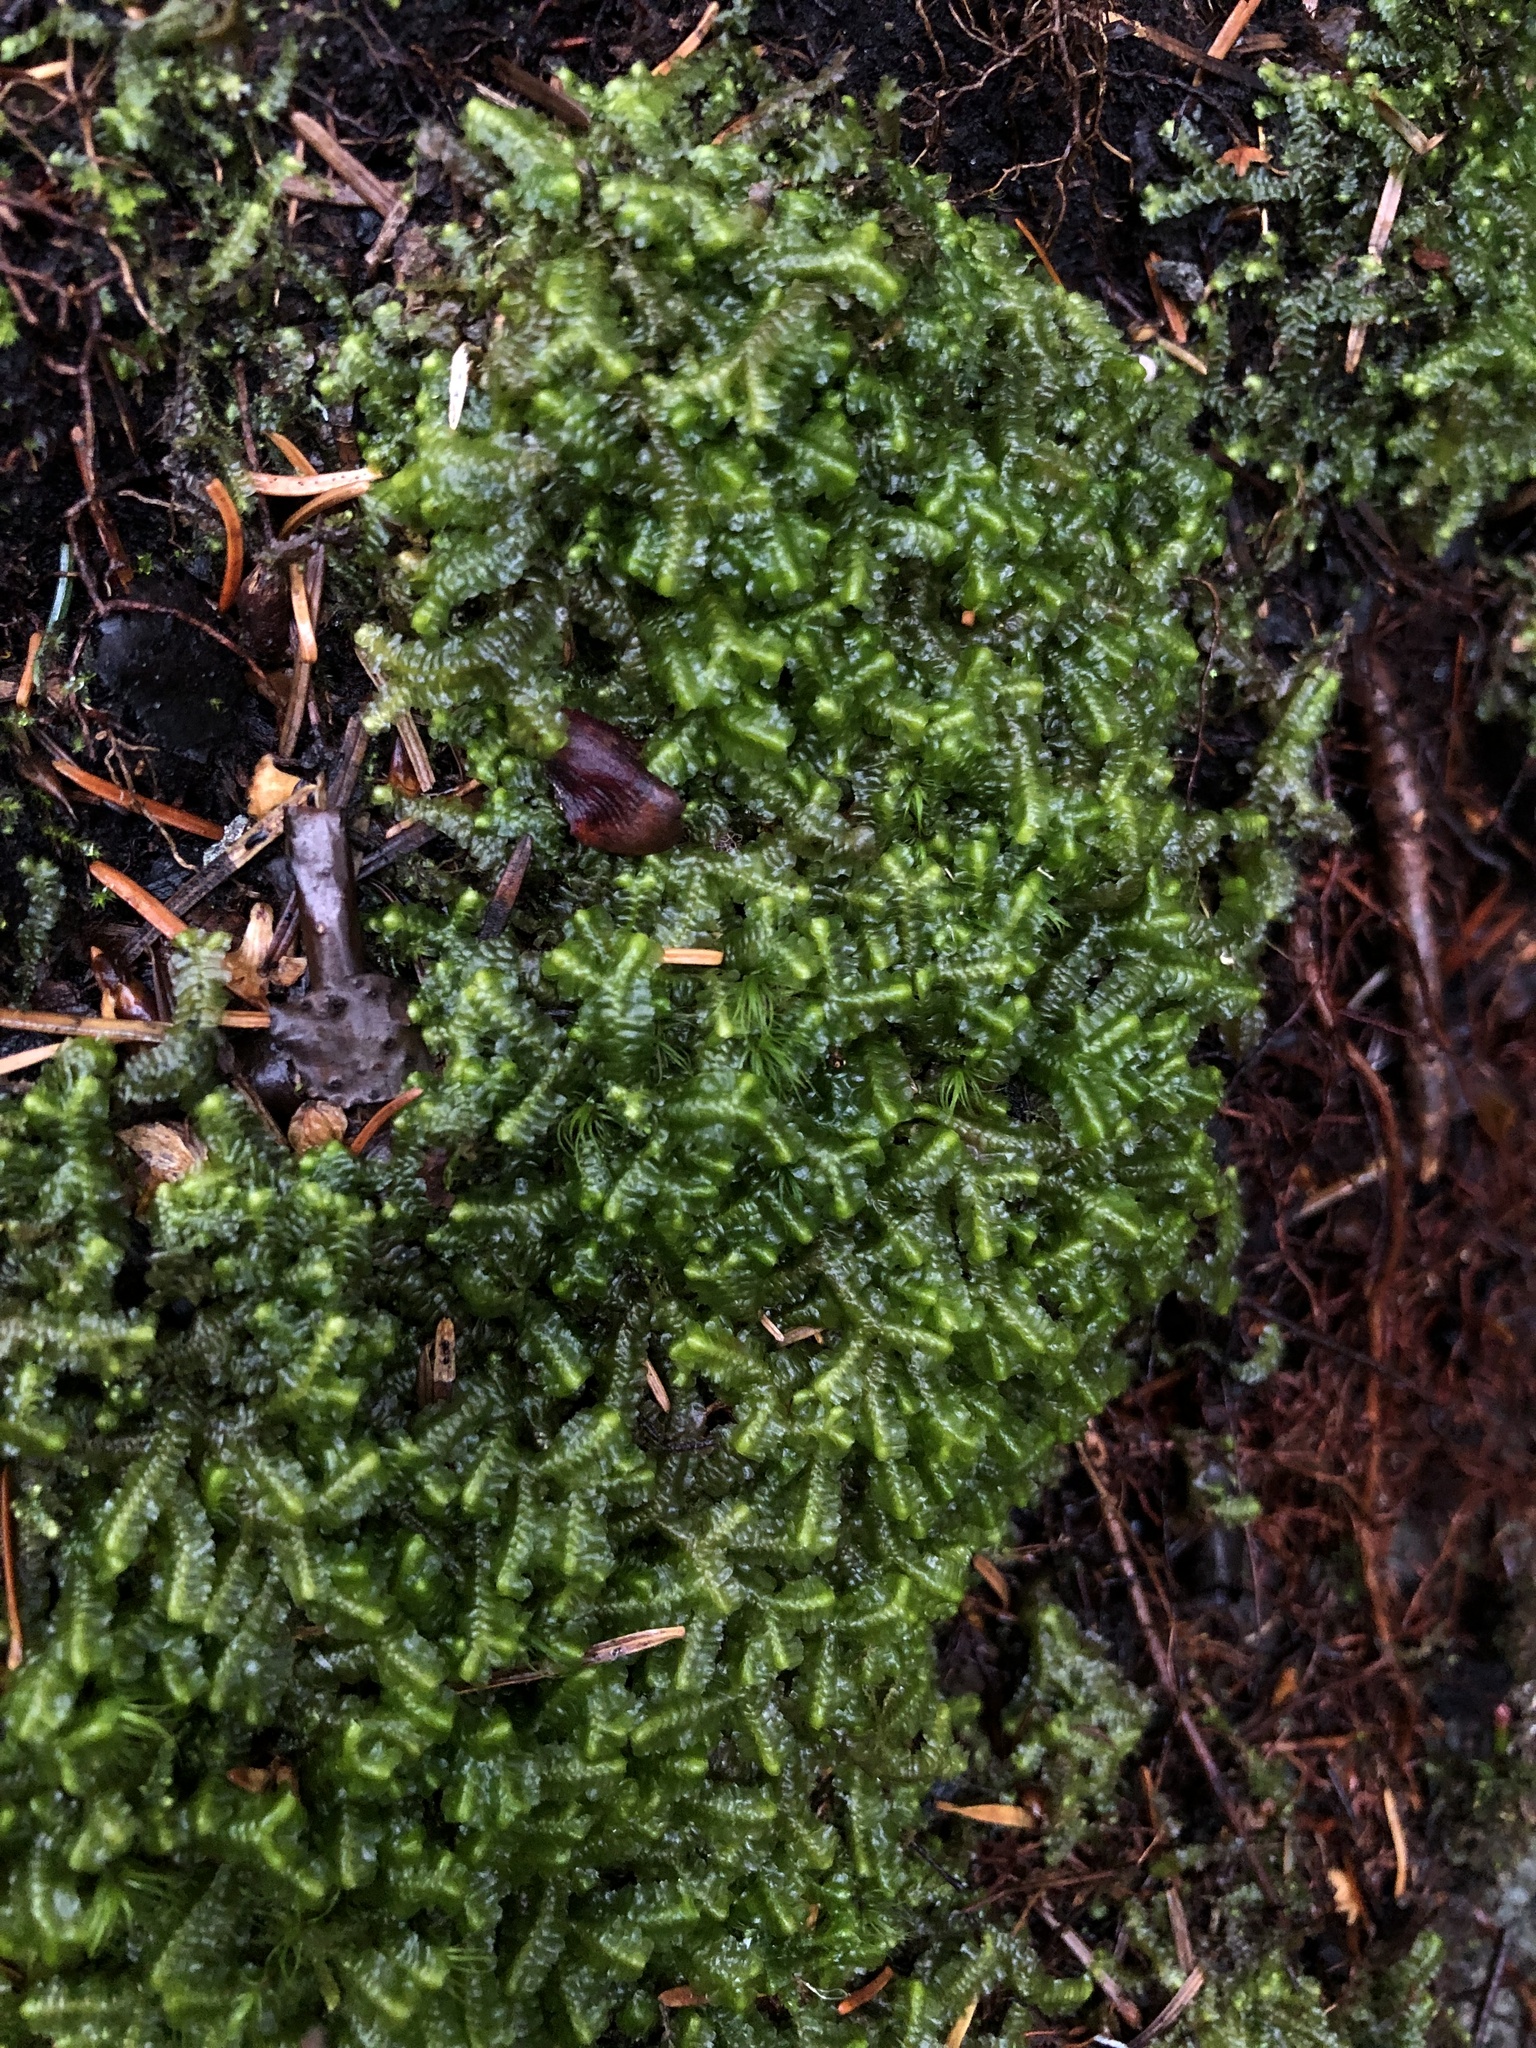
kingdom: Plantae
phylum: Marchantiophyta
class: Jungermanniopsida
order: Jungermanniales
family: Lepidoziaceae
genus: Bazzania
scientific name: Bazzania trilobata
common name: Three-lobed whipwort
